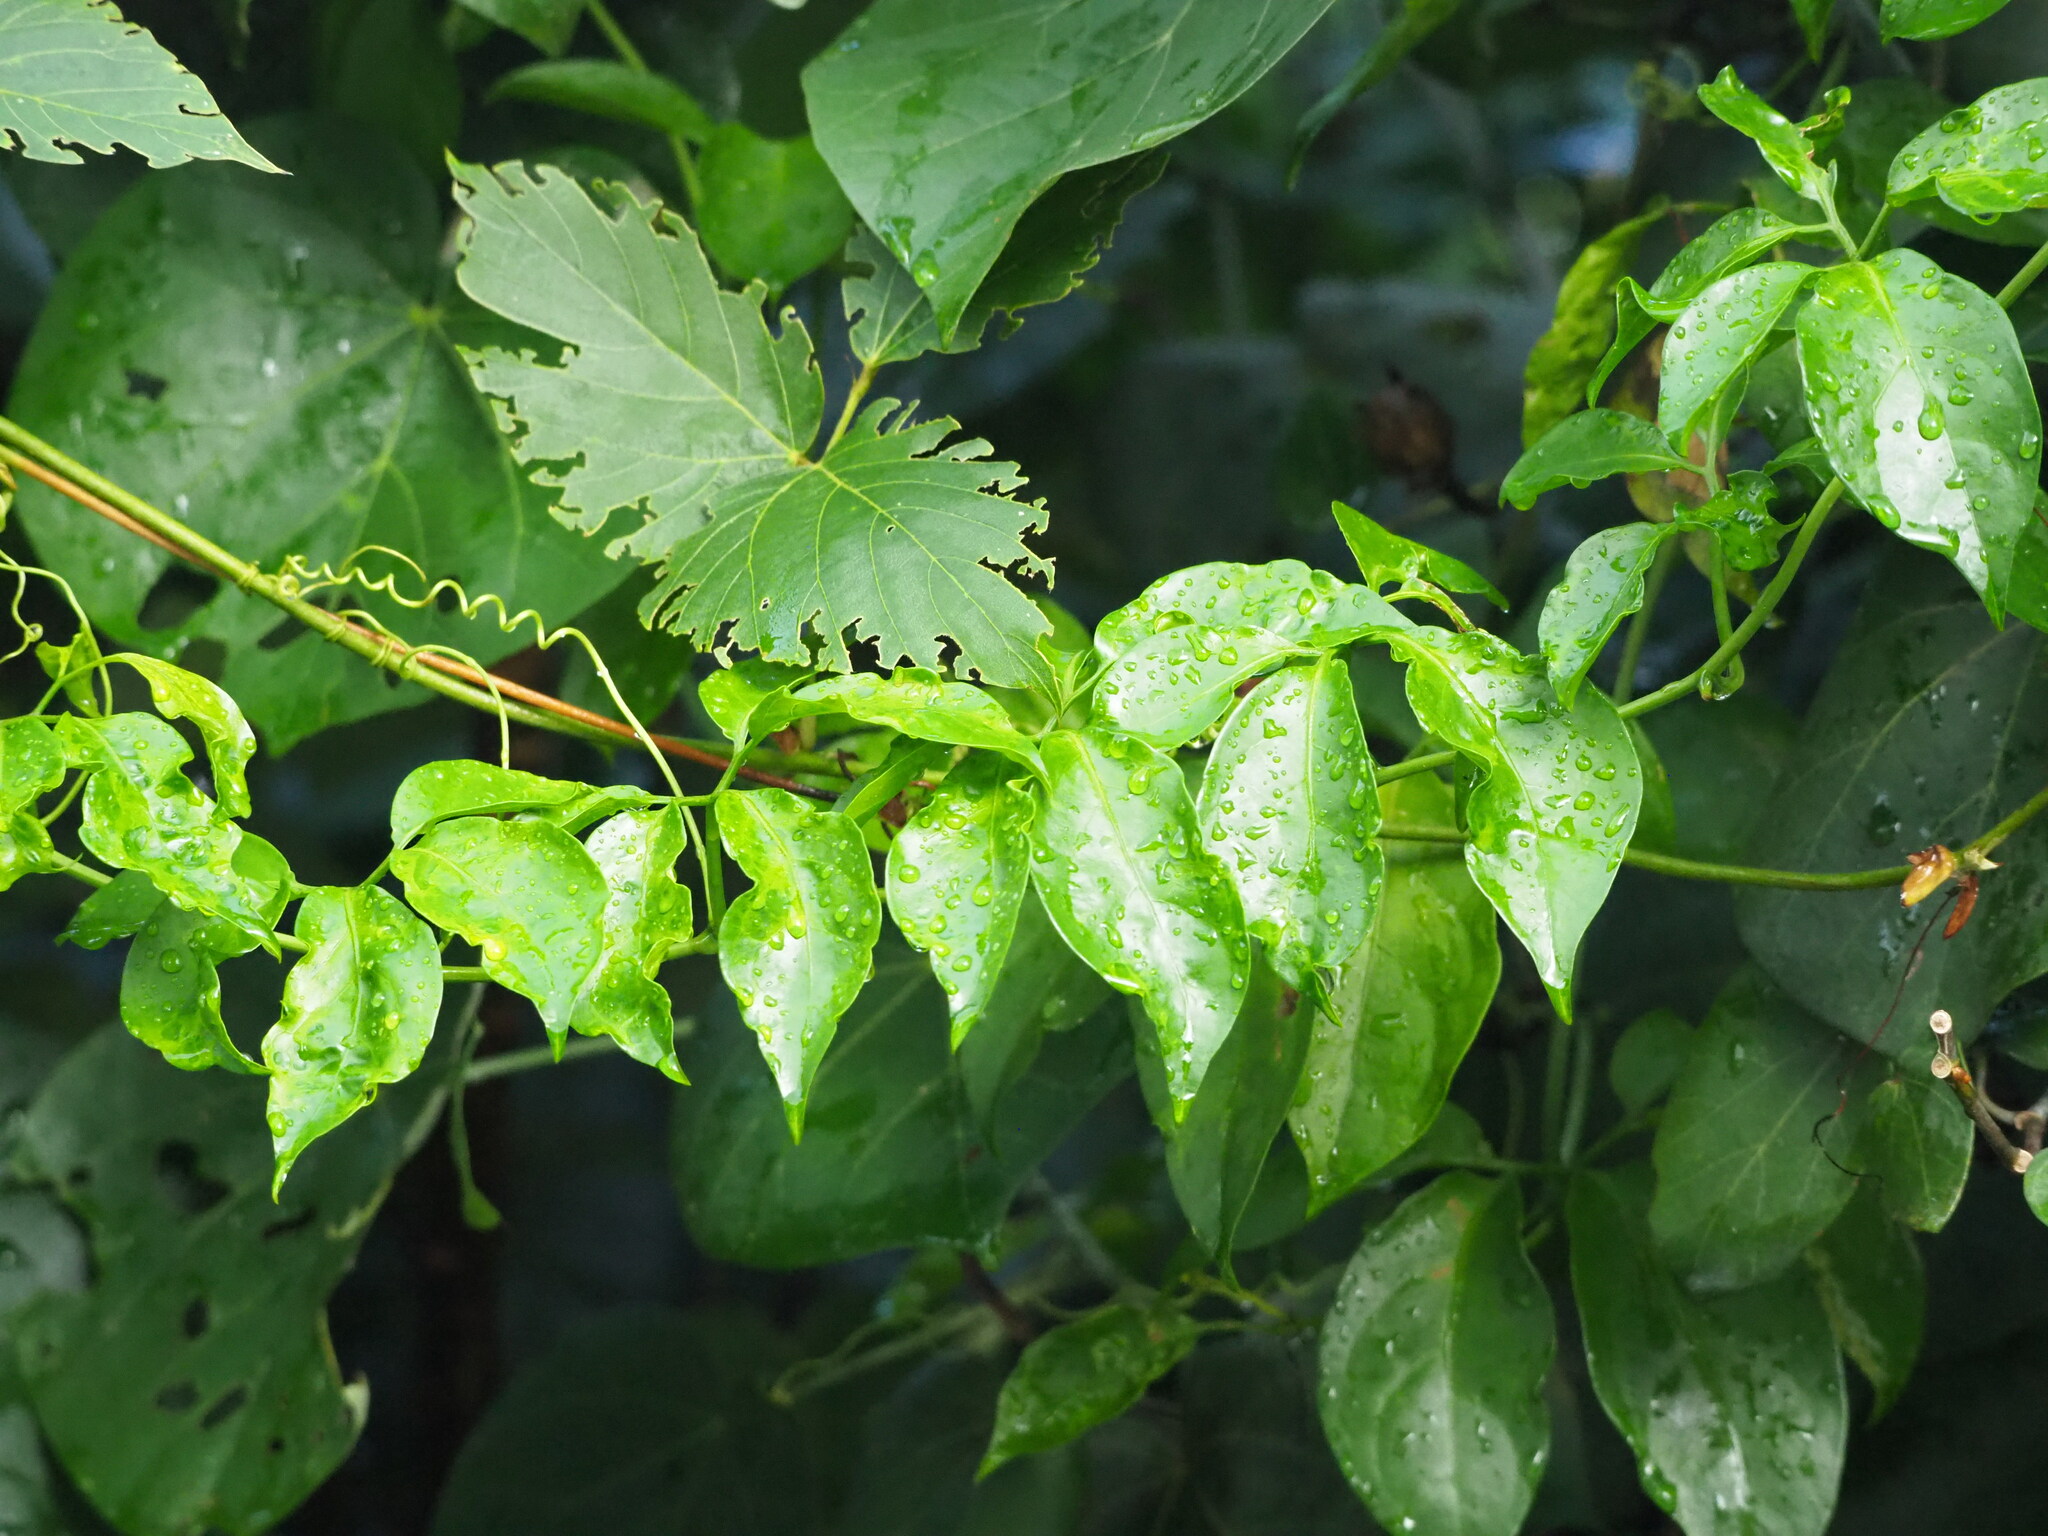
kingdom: Plantae
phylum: Tracheophyta
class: Magnoliopsida
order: Cucurbitales
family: Cucurbitaceae
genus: Neoalsomitra
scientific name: Neoalsomitra clavigera
